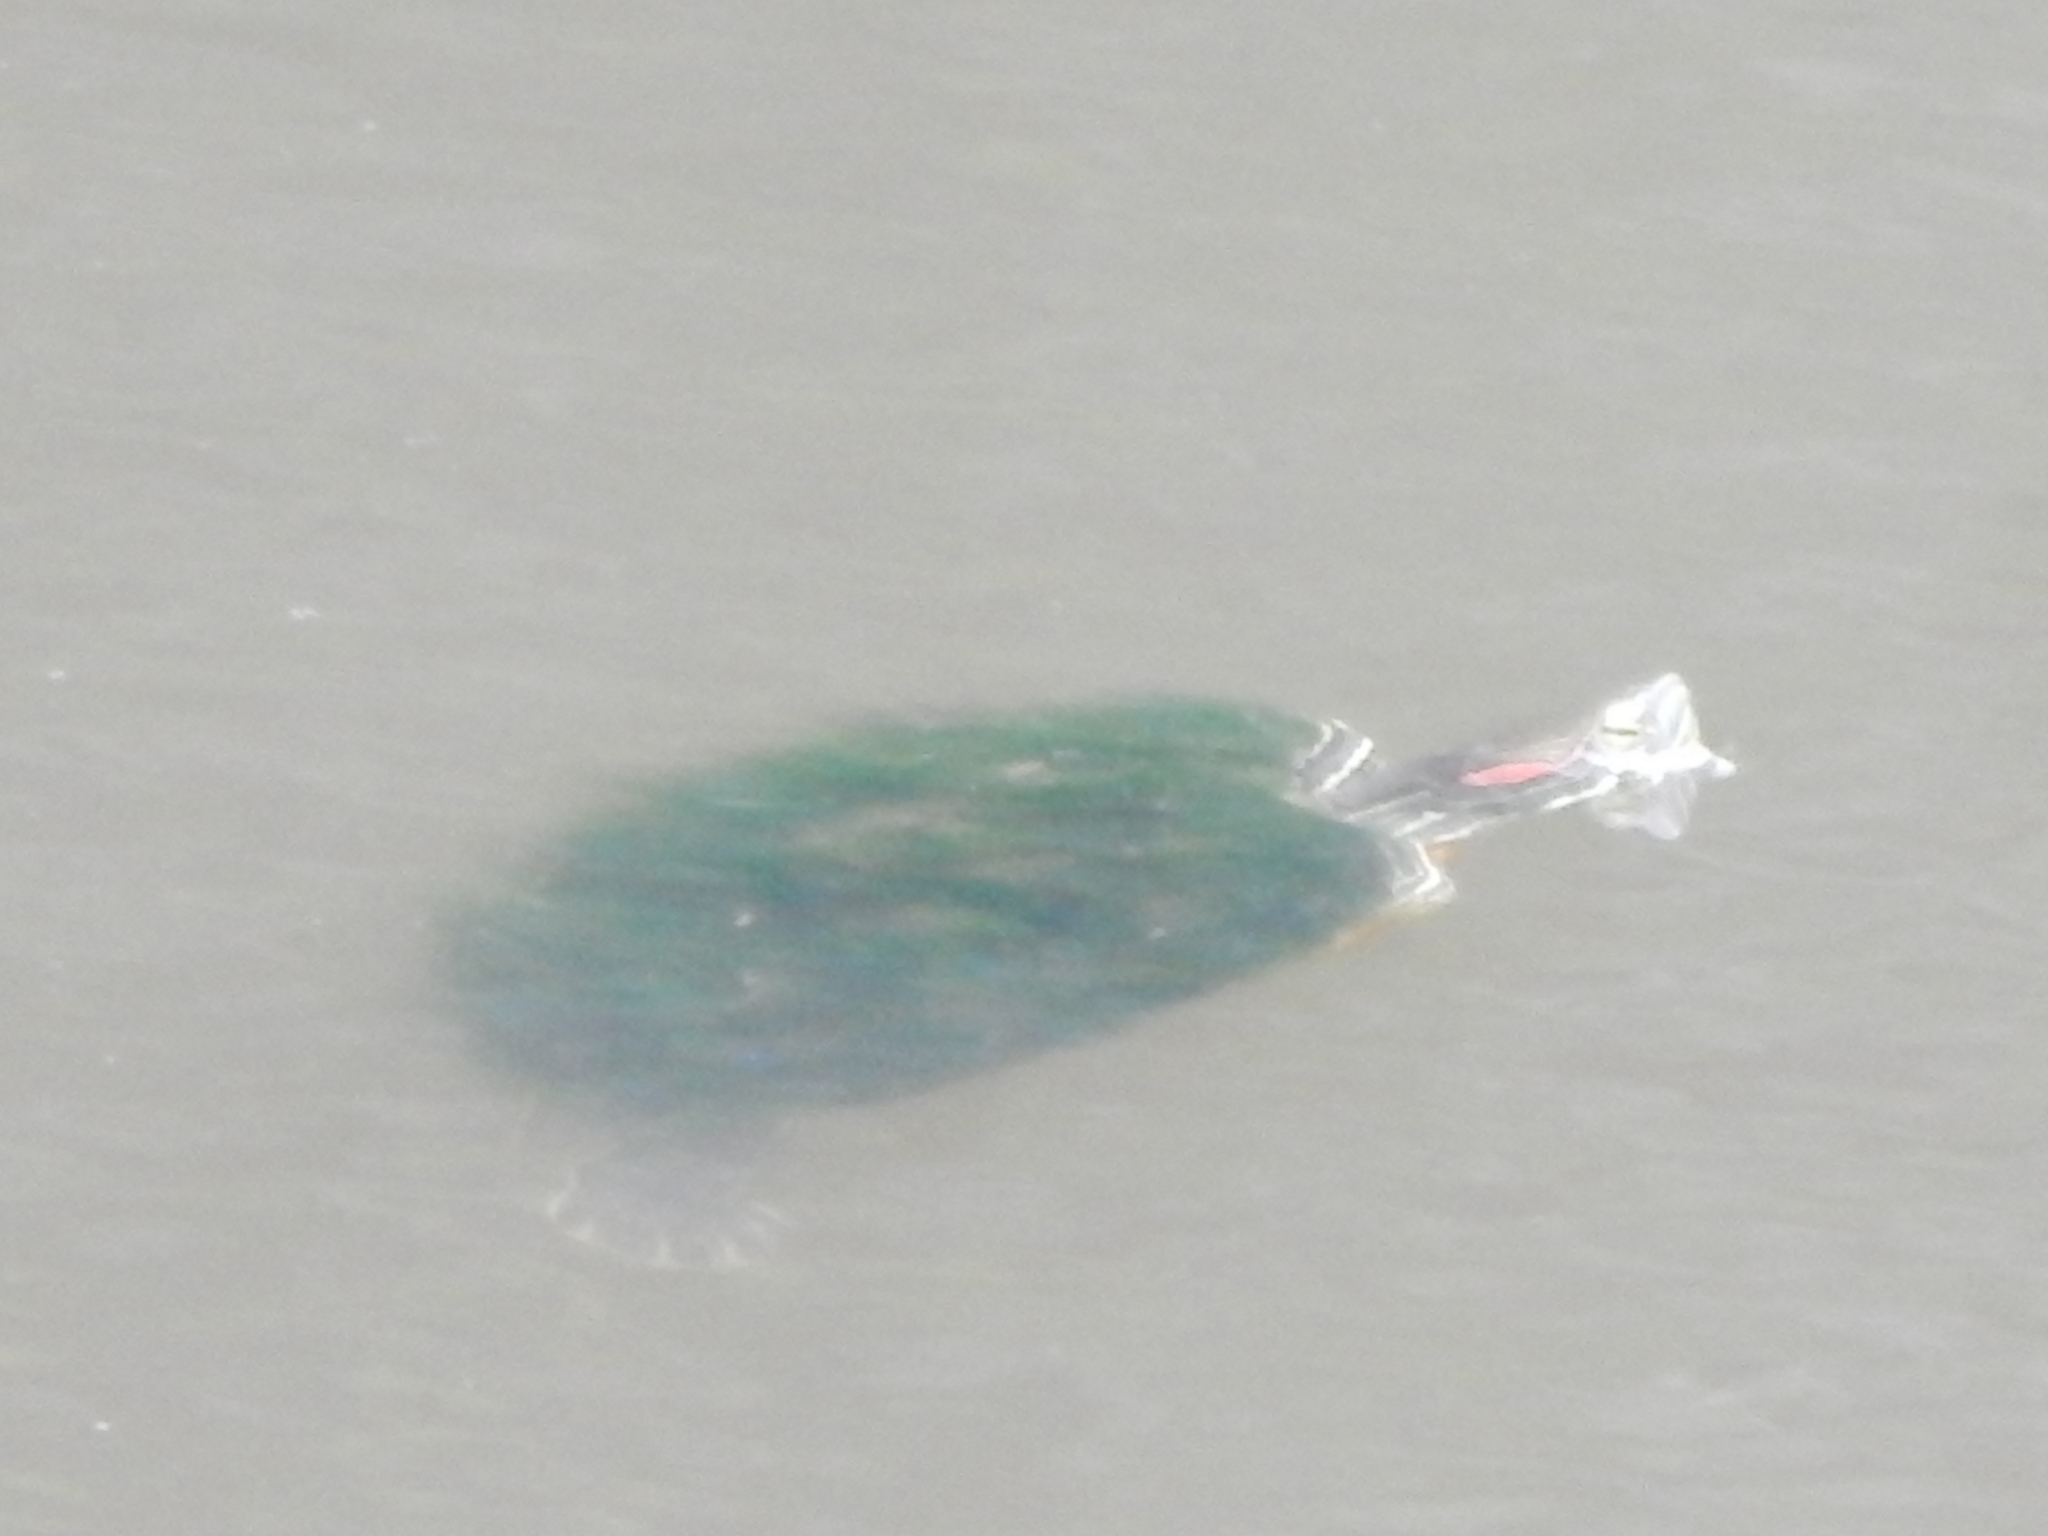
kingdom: Animalia
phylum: Chordata
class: Testudines
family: Emydidae
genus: Trachemys
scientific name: Trachemys scripta
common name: Slider
